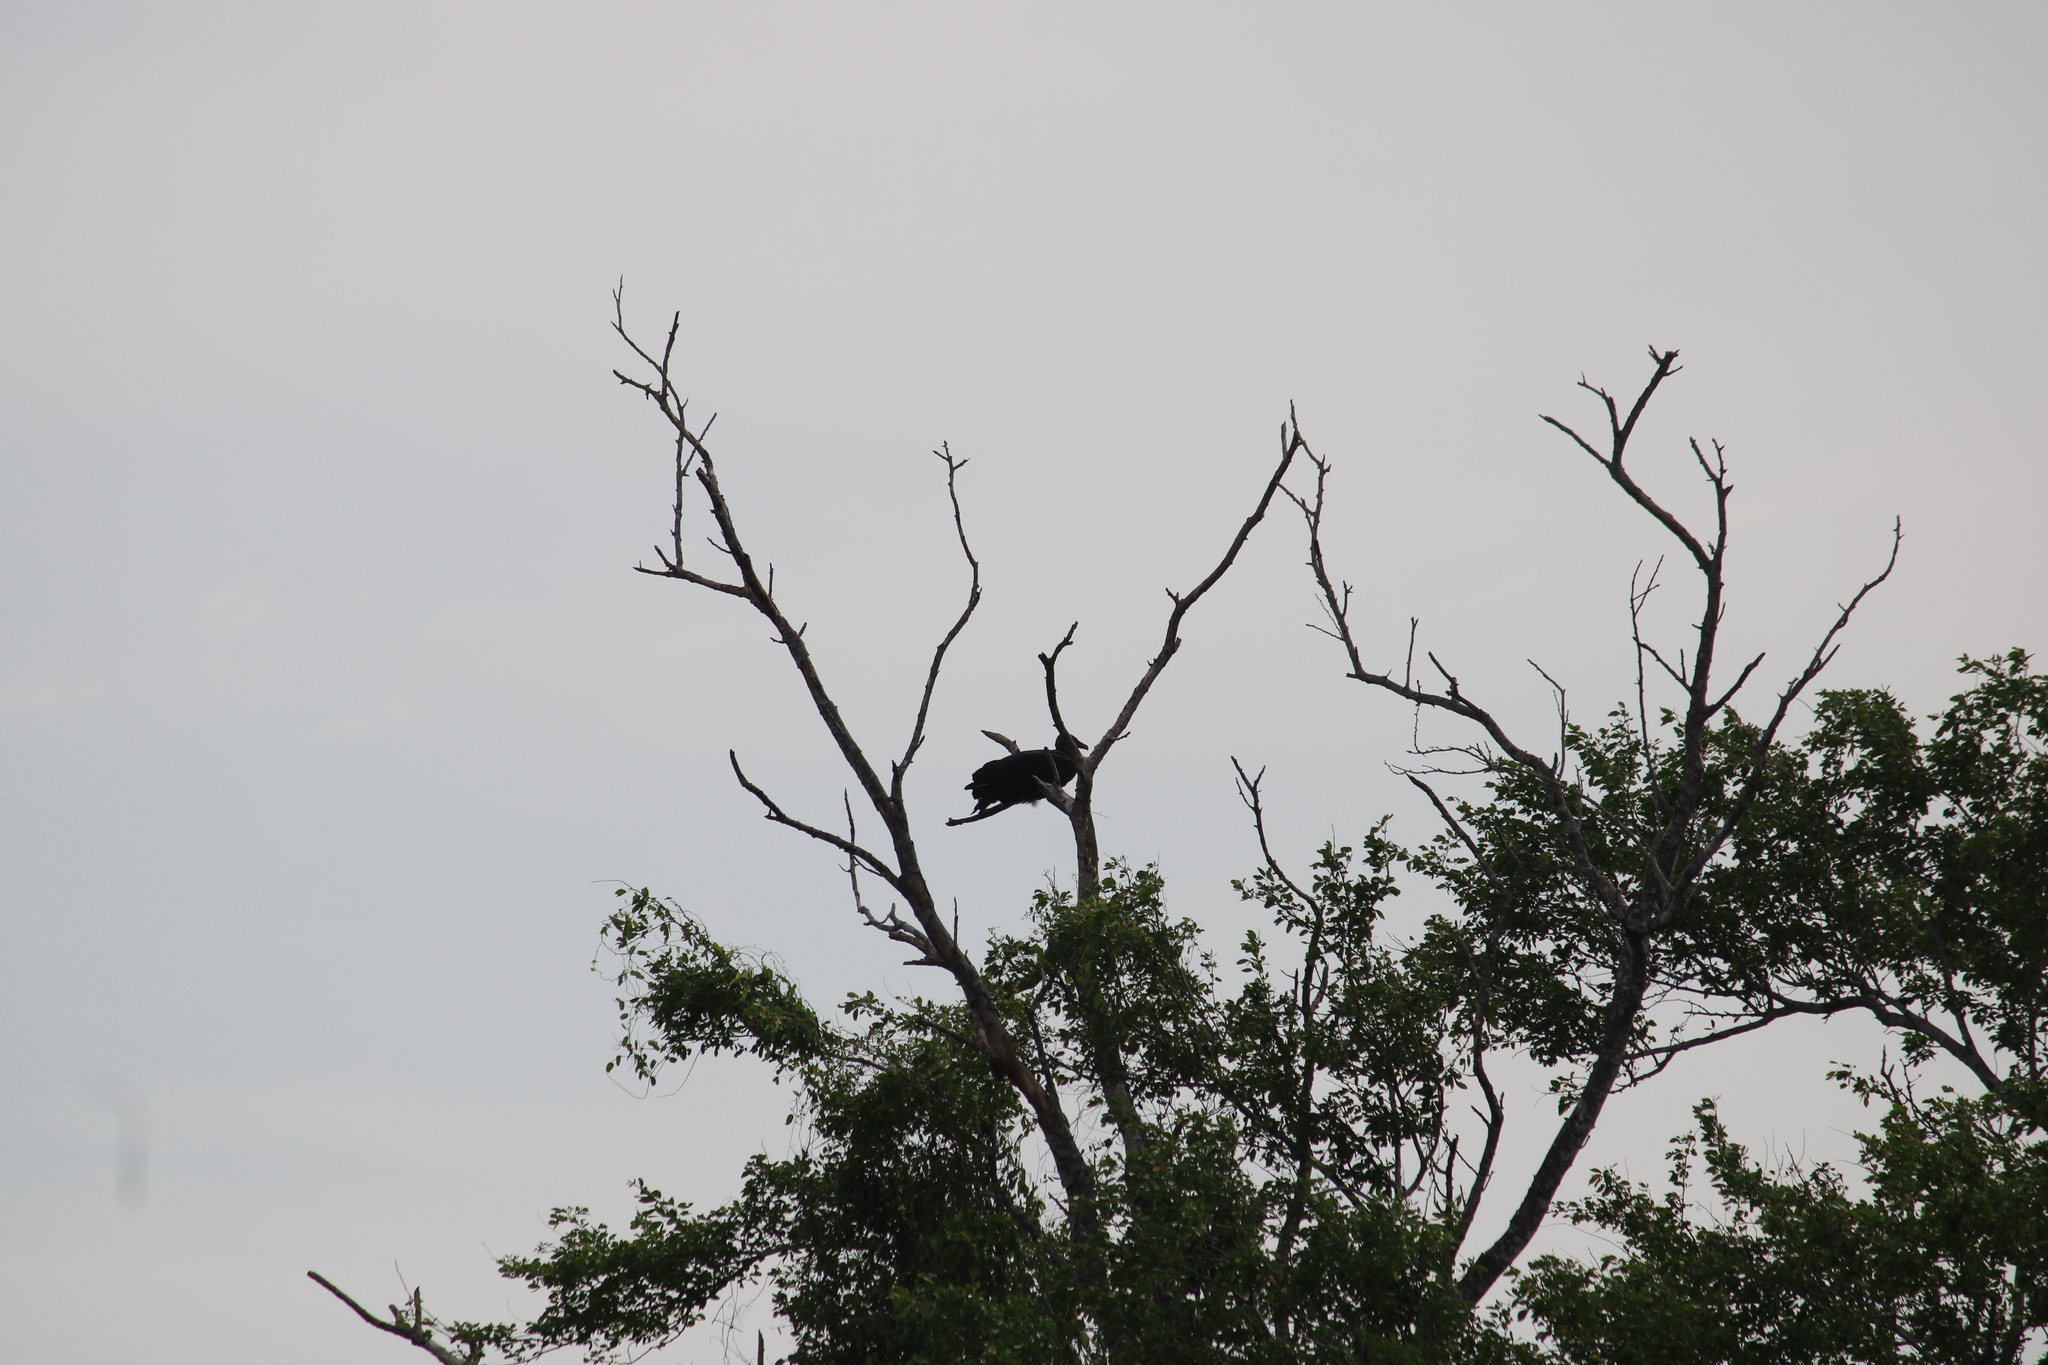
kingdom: Animalia
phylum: Chordata
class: Aves
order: Accipitriformes
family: Cathartidae
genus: Coragyps
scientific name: Coragyps atratus
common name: Black vulture
